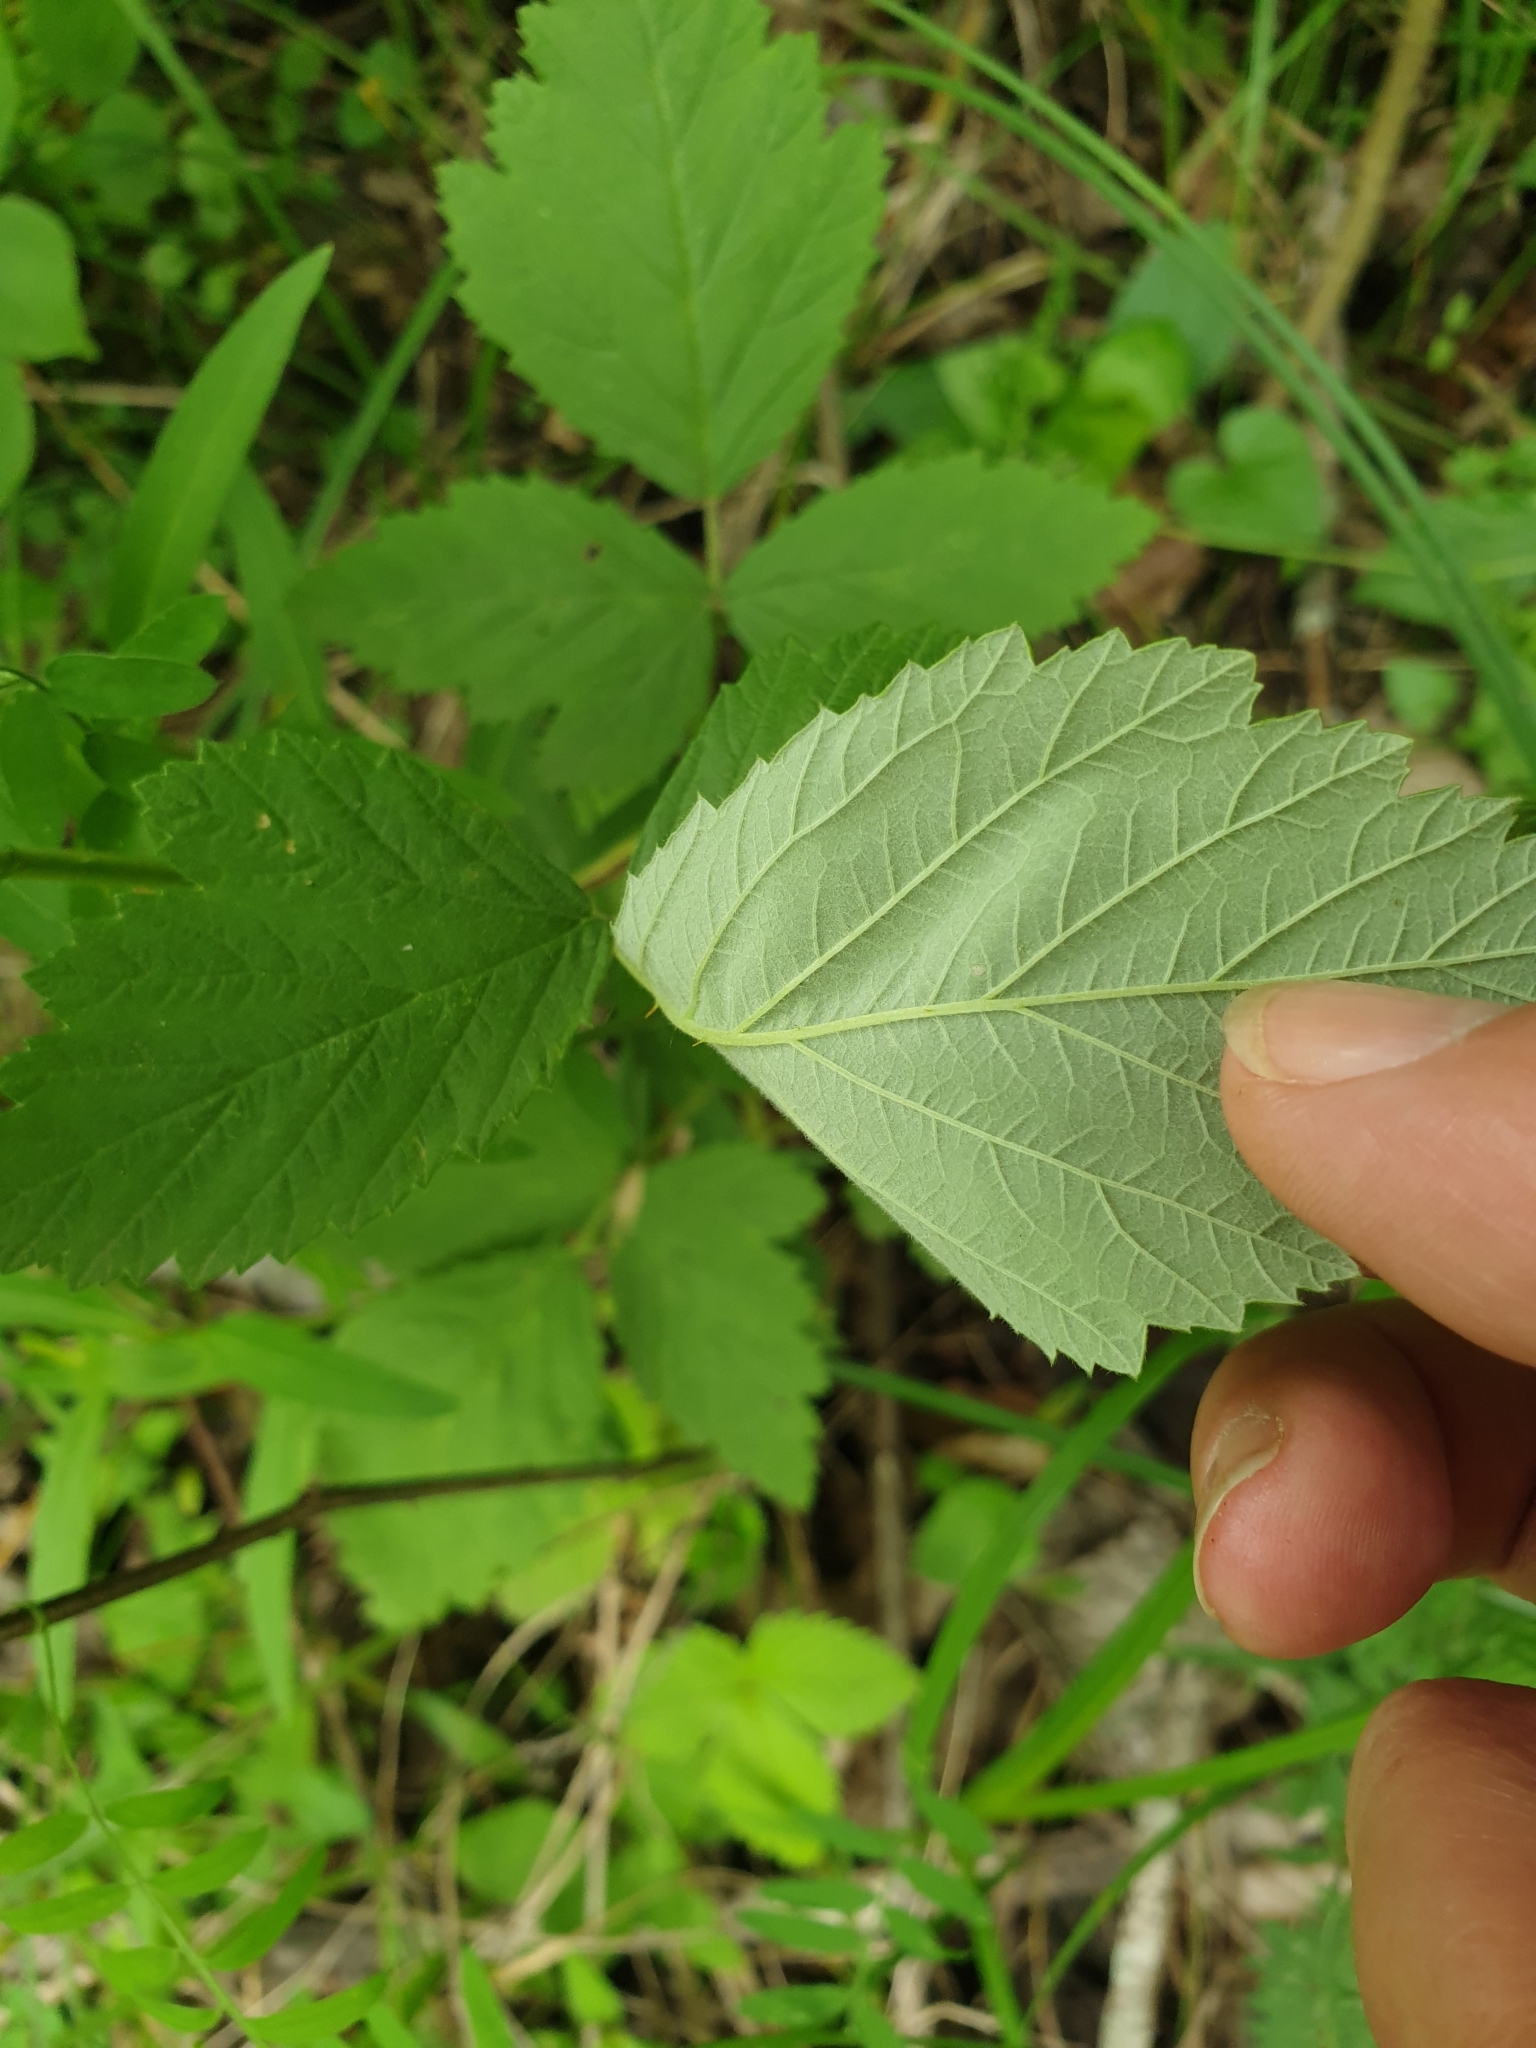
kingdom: Plantae
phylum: Tracheophyta
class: Magnoliopsida
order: Rosales
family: Rosaceae
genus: Rubus
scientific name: Rubus canescens
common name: Wooly blackberry
